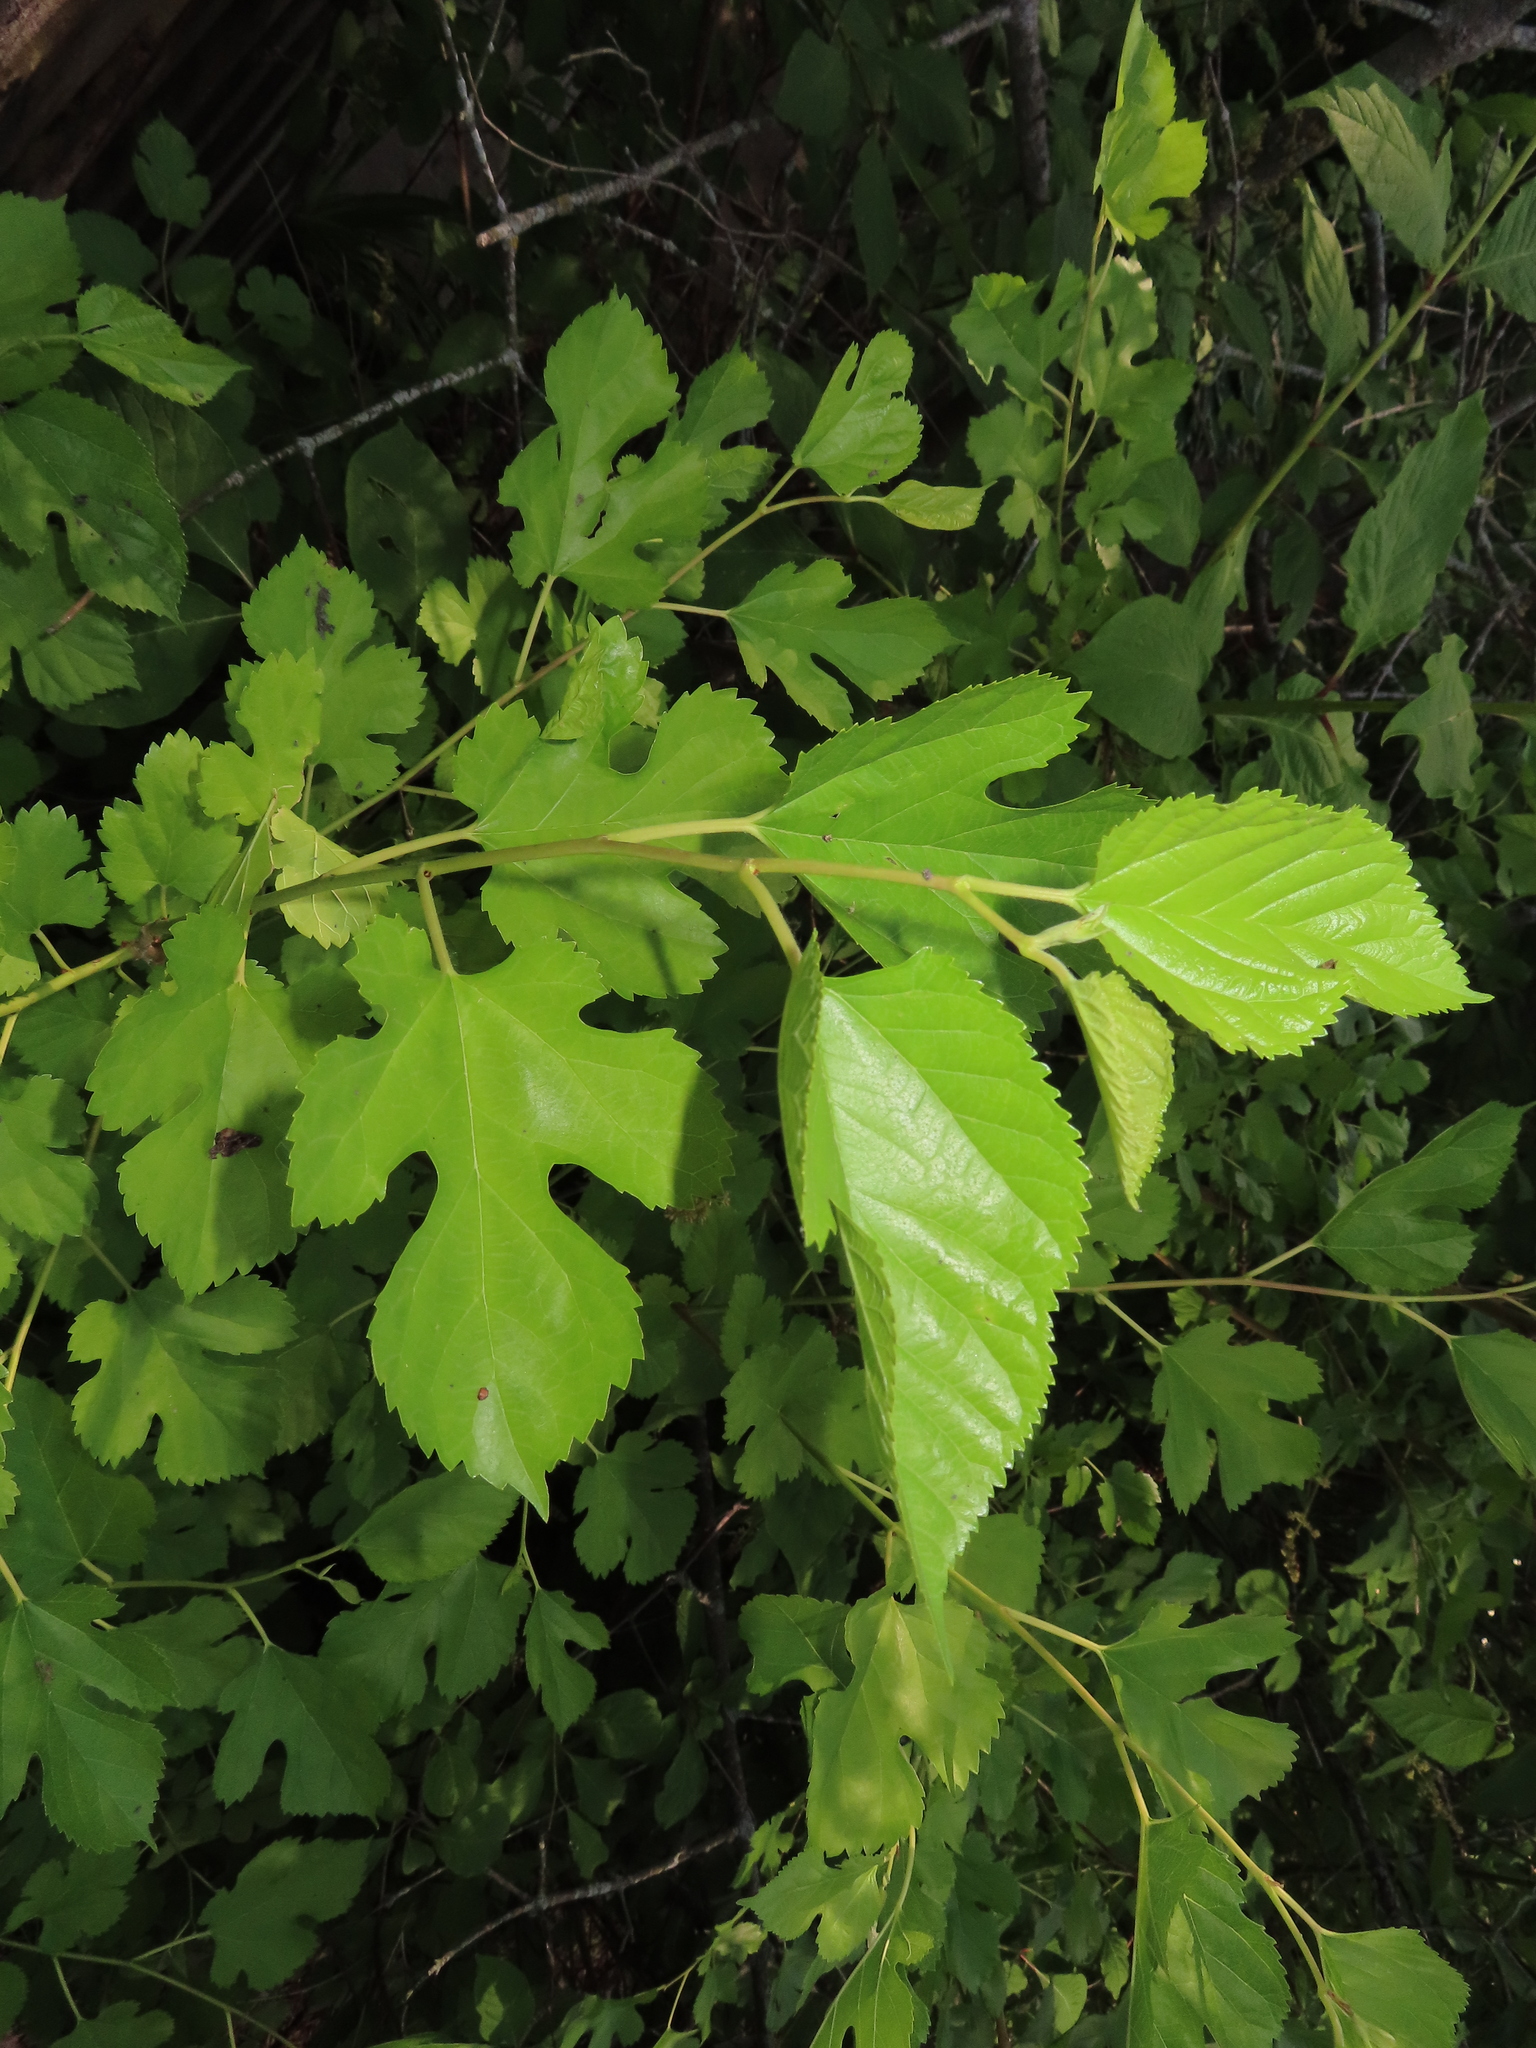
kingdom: Plantae
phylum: Tracheophyta
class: Magnoliopsida
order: Rosales
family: Moraceae
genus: Morus
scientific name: Morus alba
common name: White mulberry
